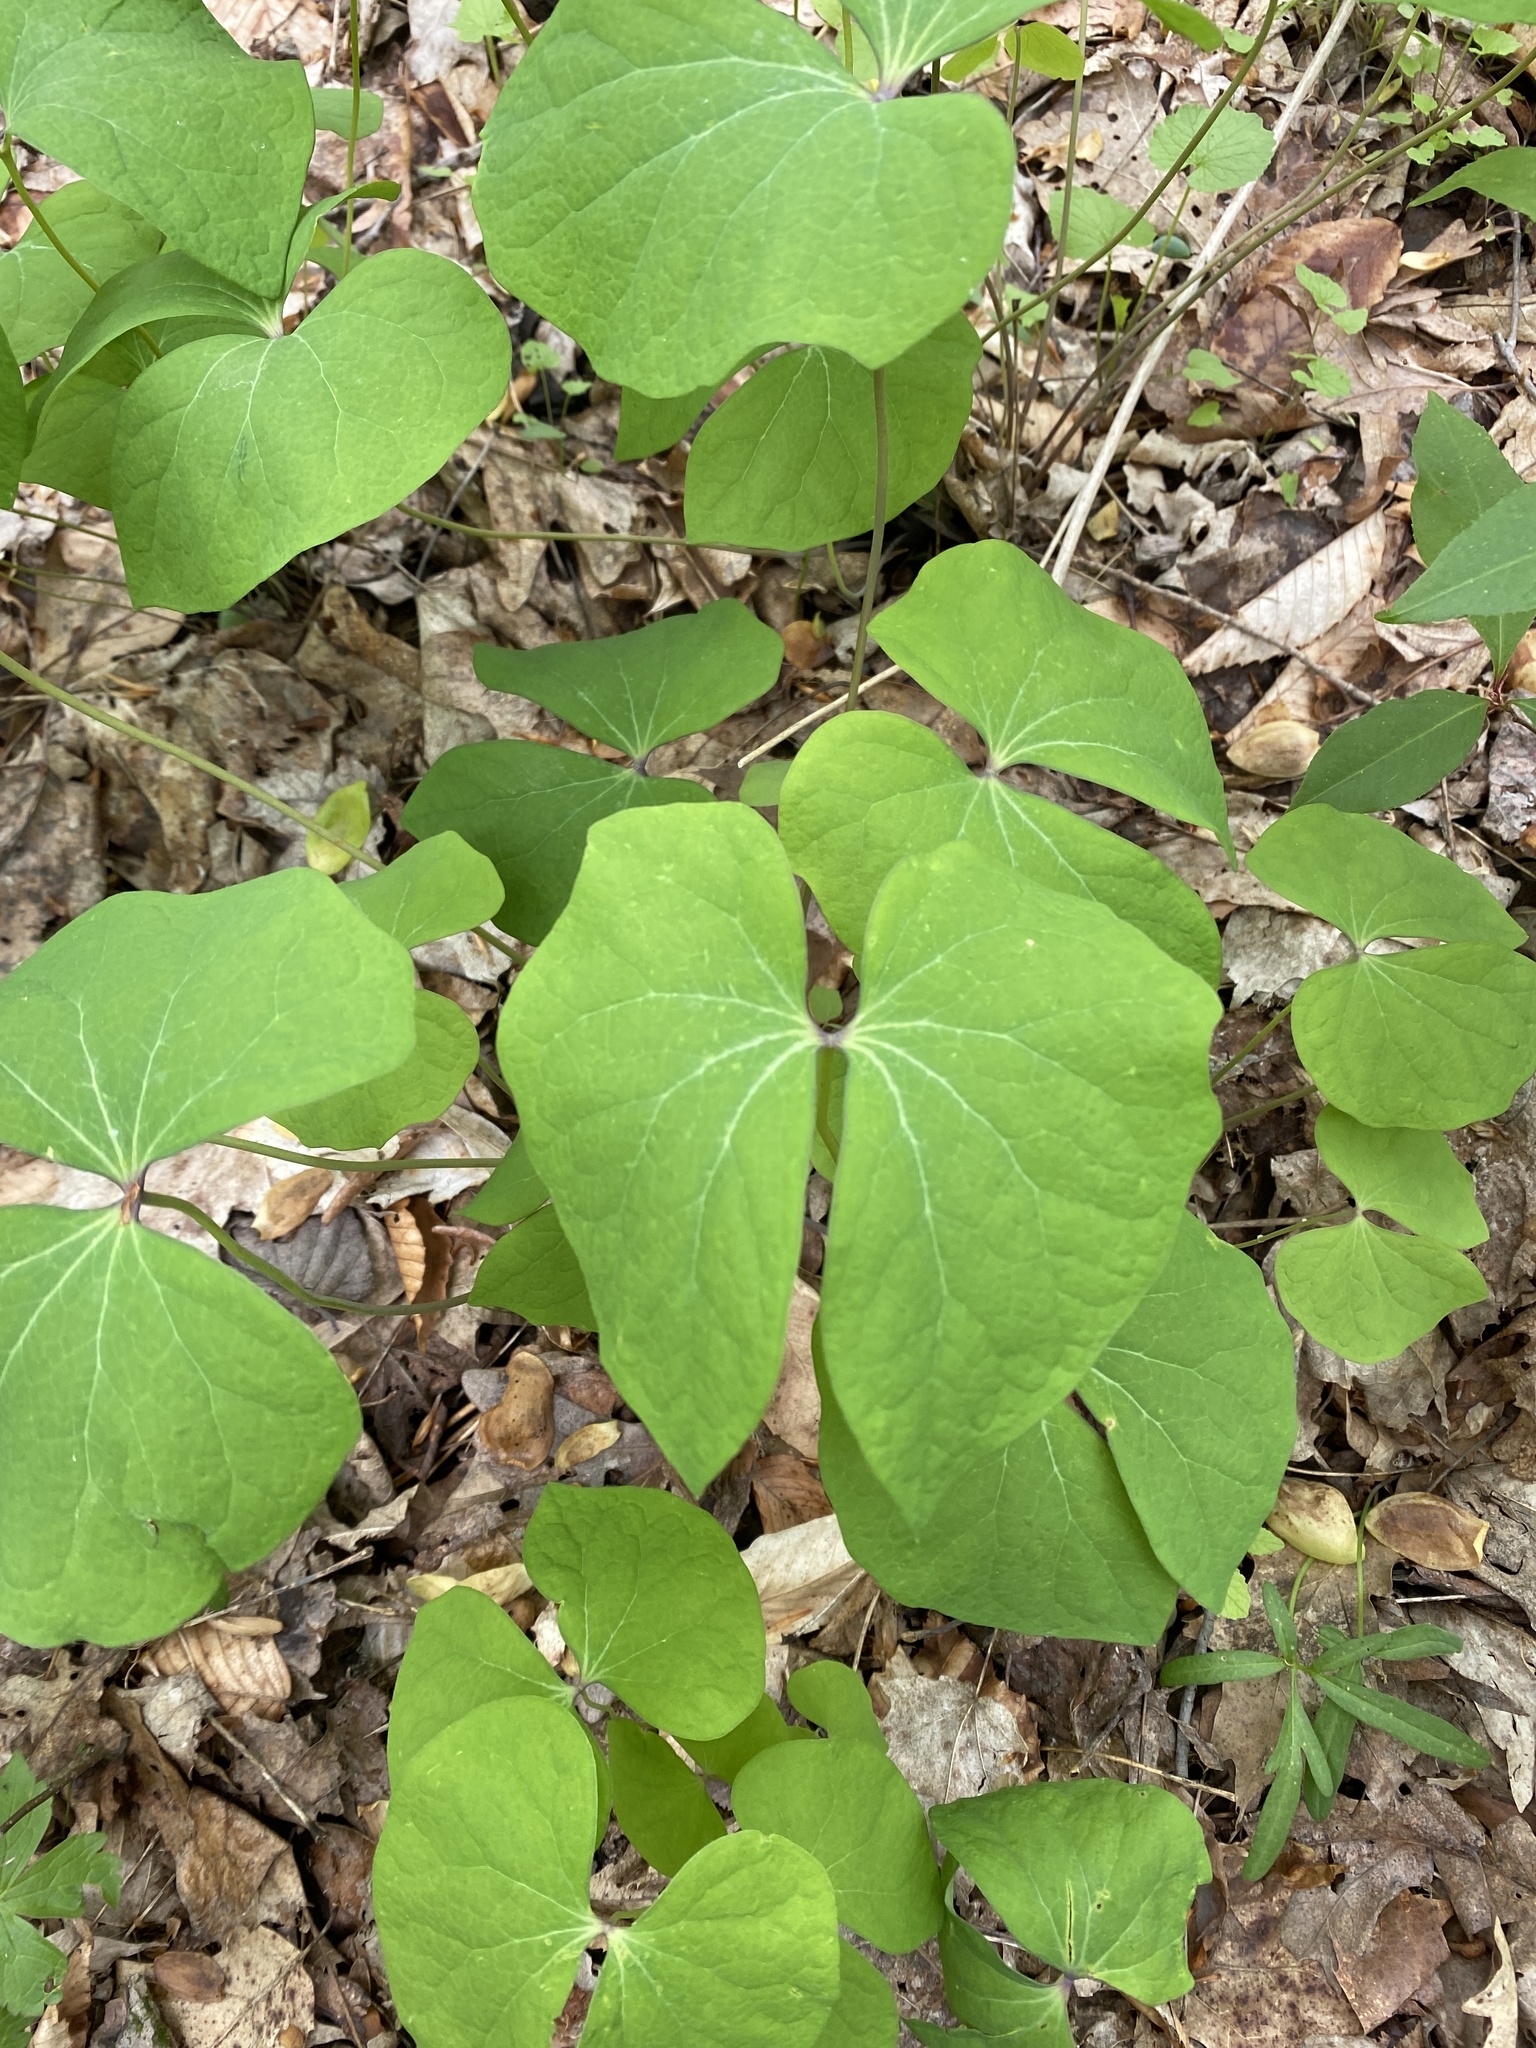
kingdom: Plantae
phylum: Tracheophyta
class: Magnoliopsida
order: Ranunculales
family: Berberidaceae
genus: Jeffersonia
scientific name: Jeffersonia diphylla
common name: Rheumatism-root
